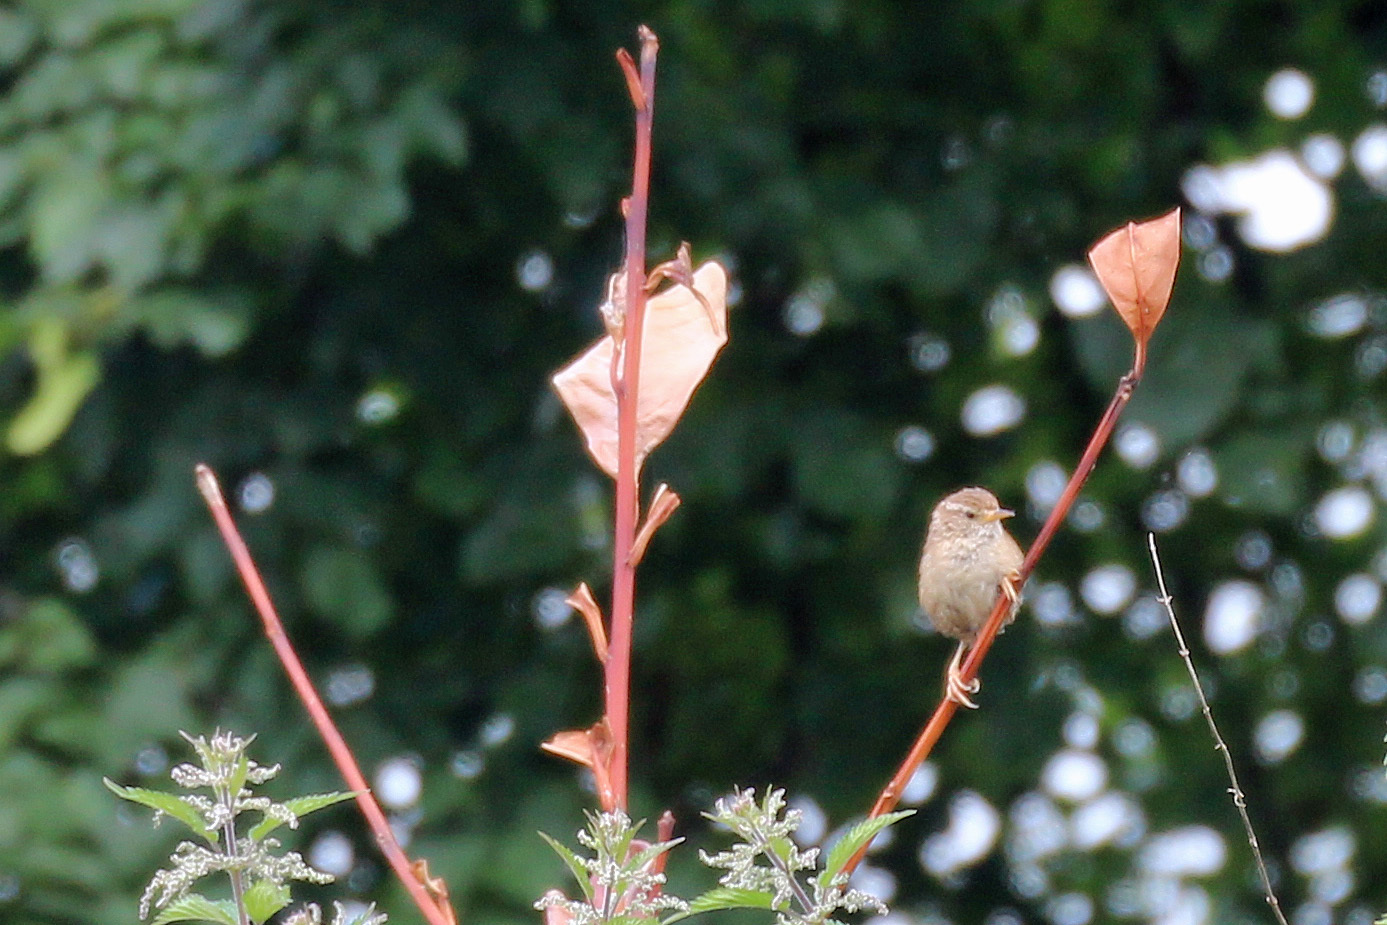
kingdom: Animalia
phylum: Chordata
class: Aves
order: Passeriformes
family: Troglodytidae
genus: Troglodytes
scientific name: Troglodytes troglodytes
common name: Eurasian wren
